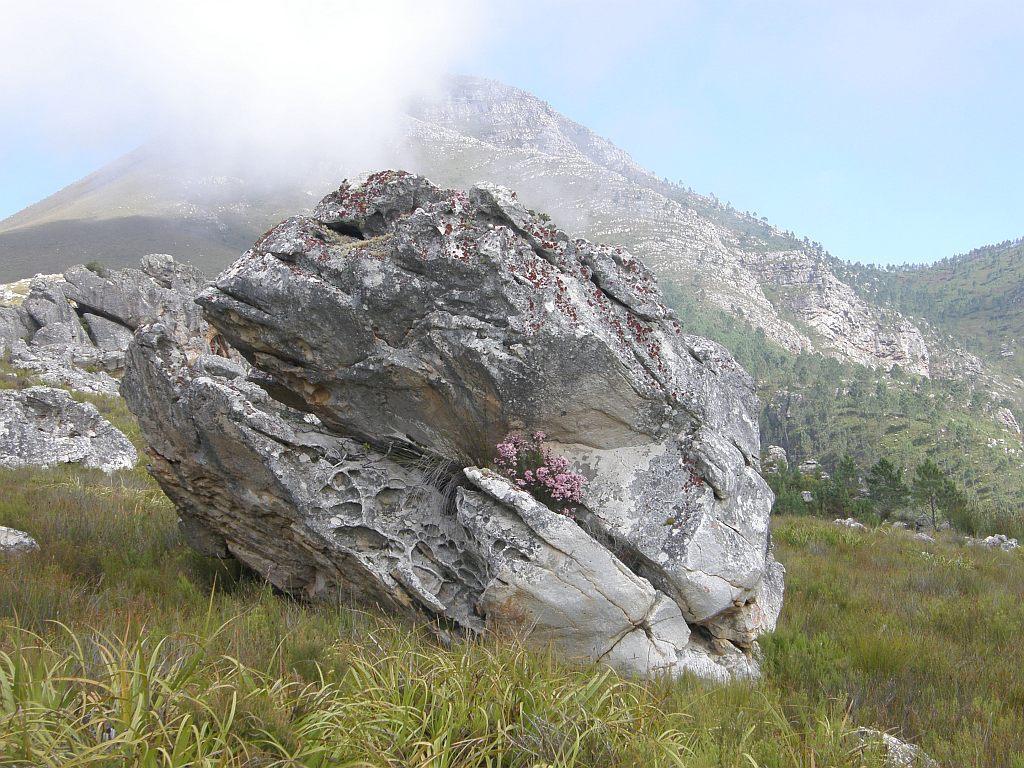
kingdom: Plantae
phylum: Tracheophyta
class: Magnoliopsida
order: Ericales
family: Ericaceae
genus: Erica
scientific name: Erica modesta
